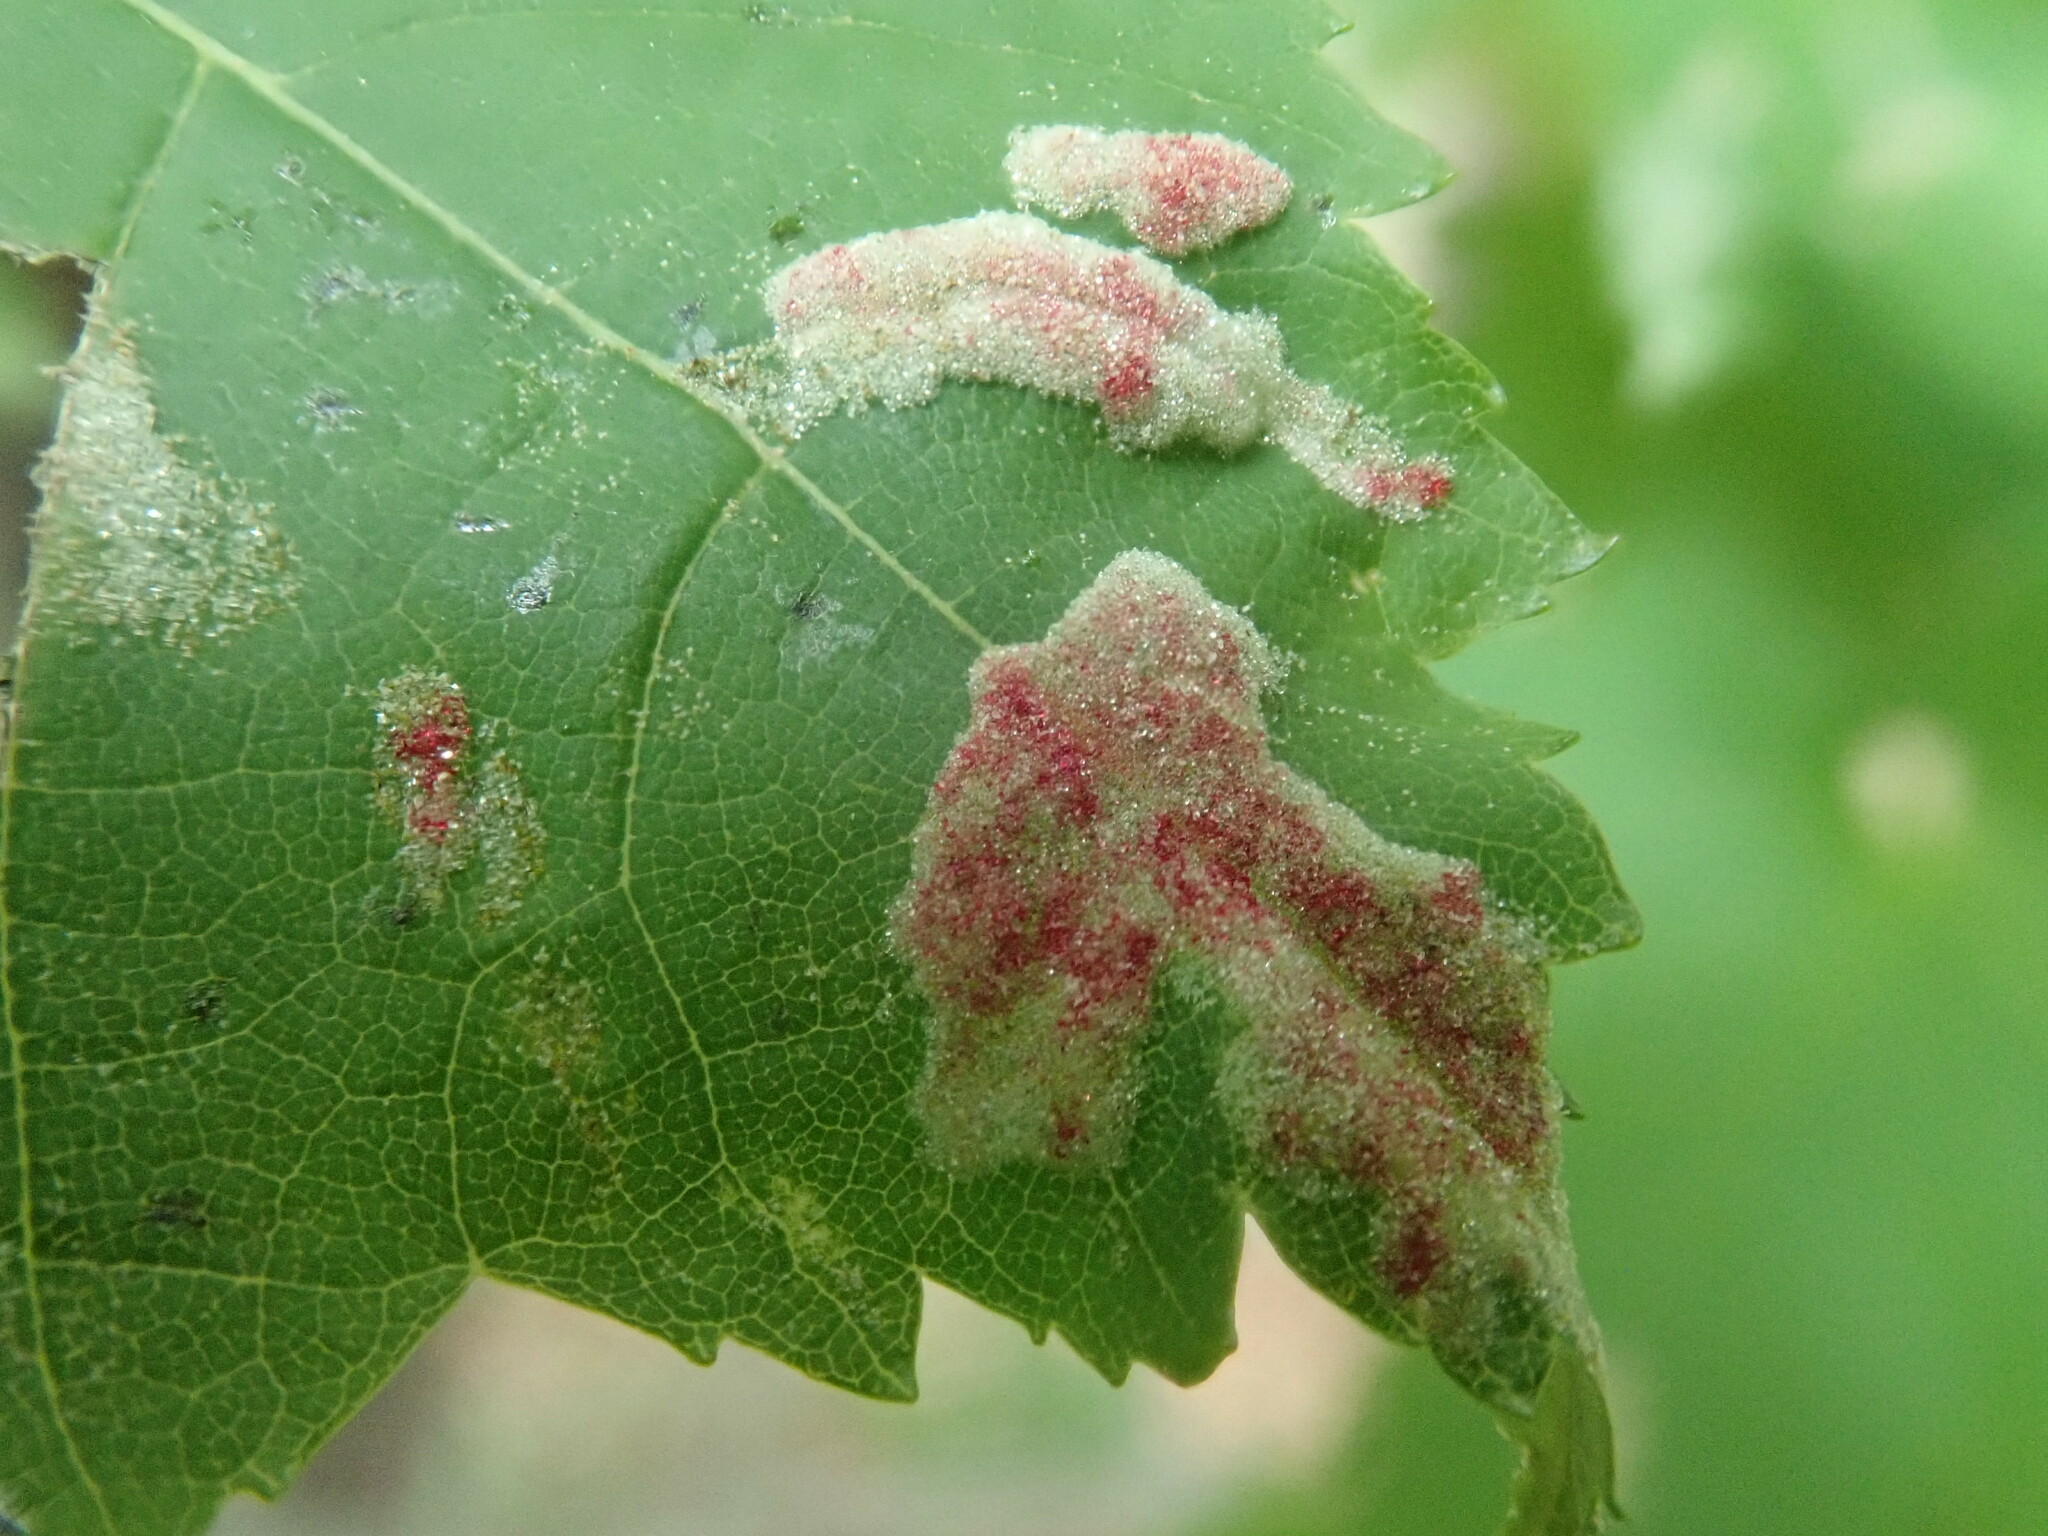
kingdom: Animalia
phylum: Arthropoda
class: Arachnida
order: Trombidiformes
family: Eriophyidae
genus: Aculus
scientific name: Aculus
